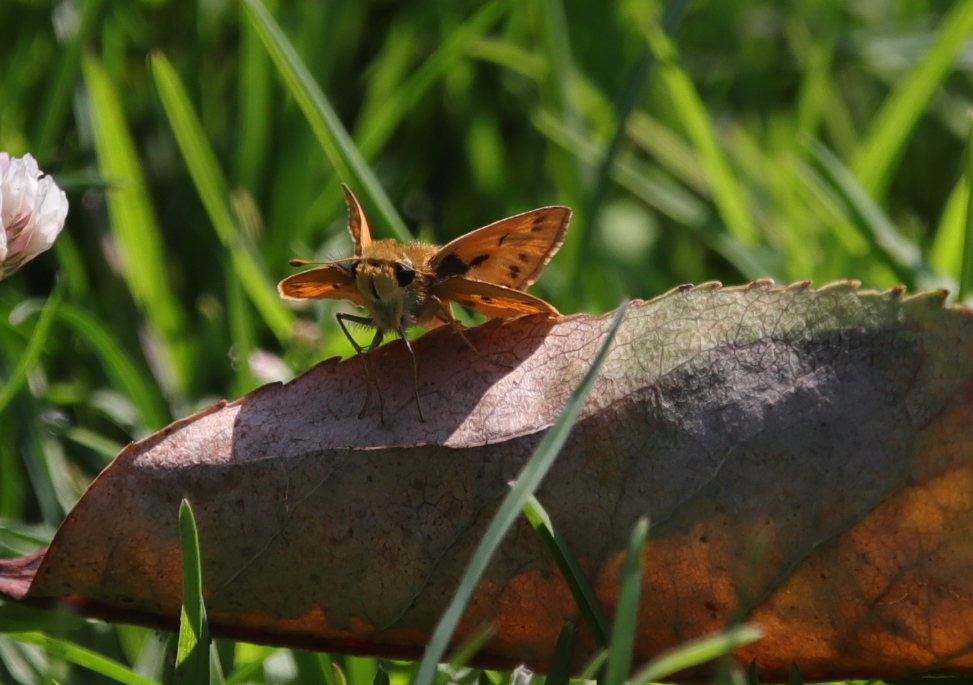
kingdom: Animalia
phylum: Arthropoda
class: Insecta
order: Lepidoptera
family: Hesperiidae
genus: Hylephila
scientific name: Hylephila phyleus
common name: Fiery skipper
